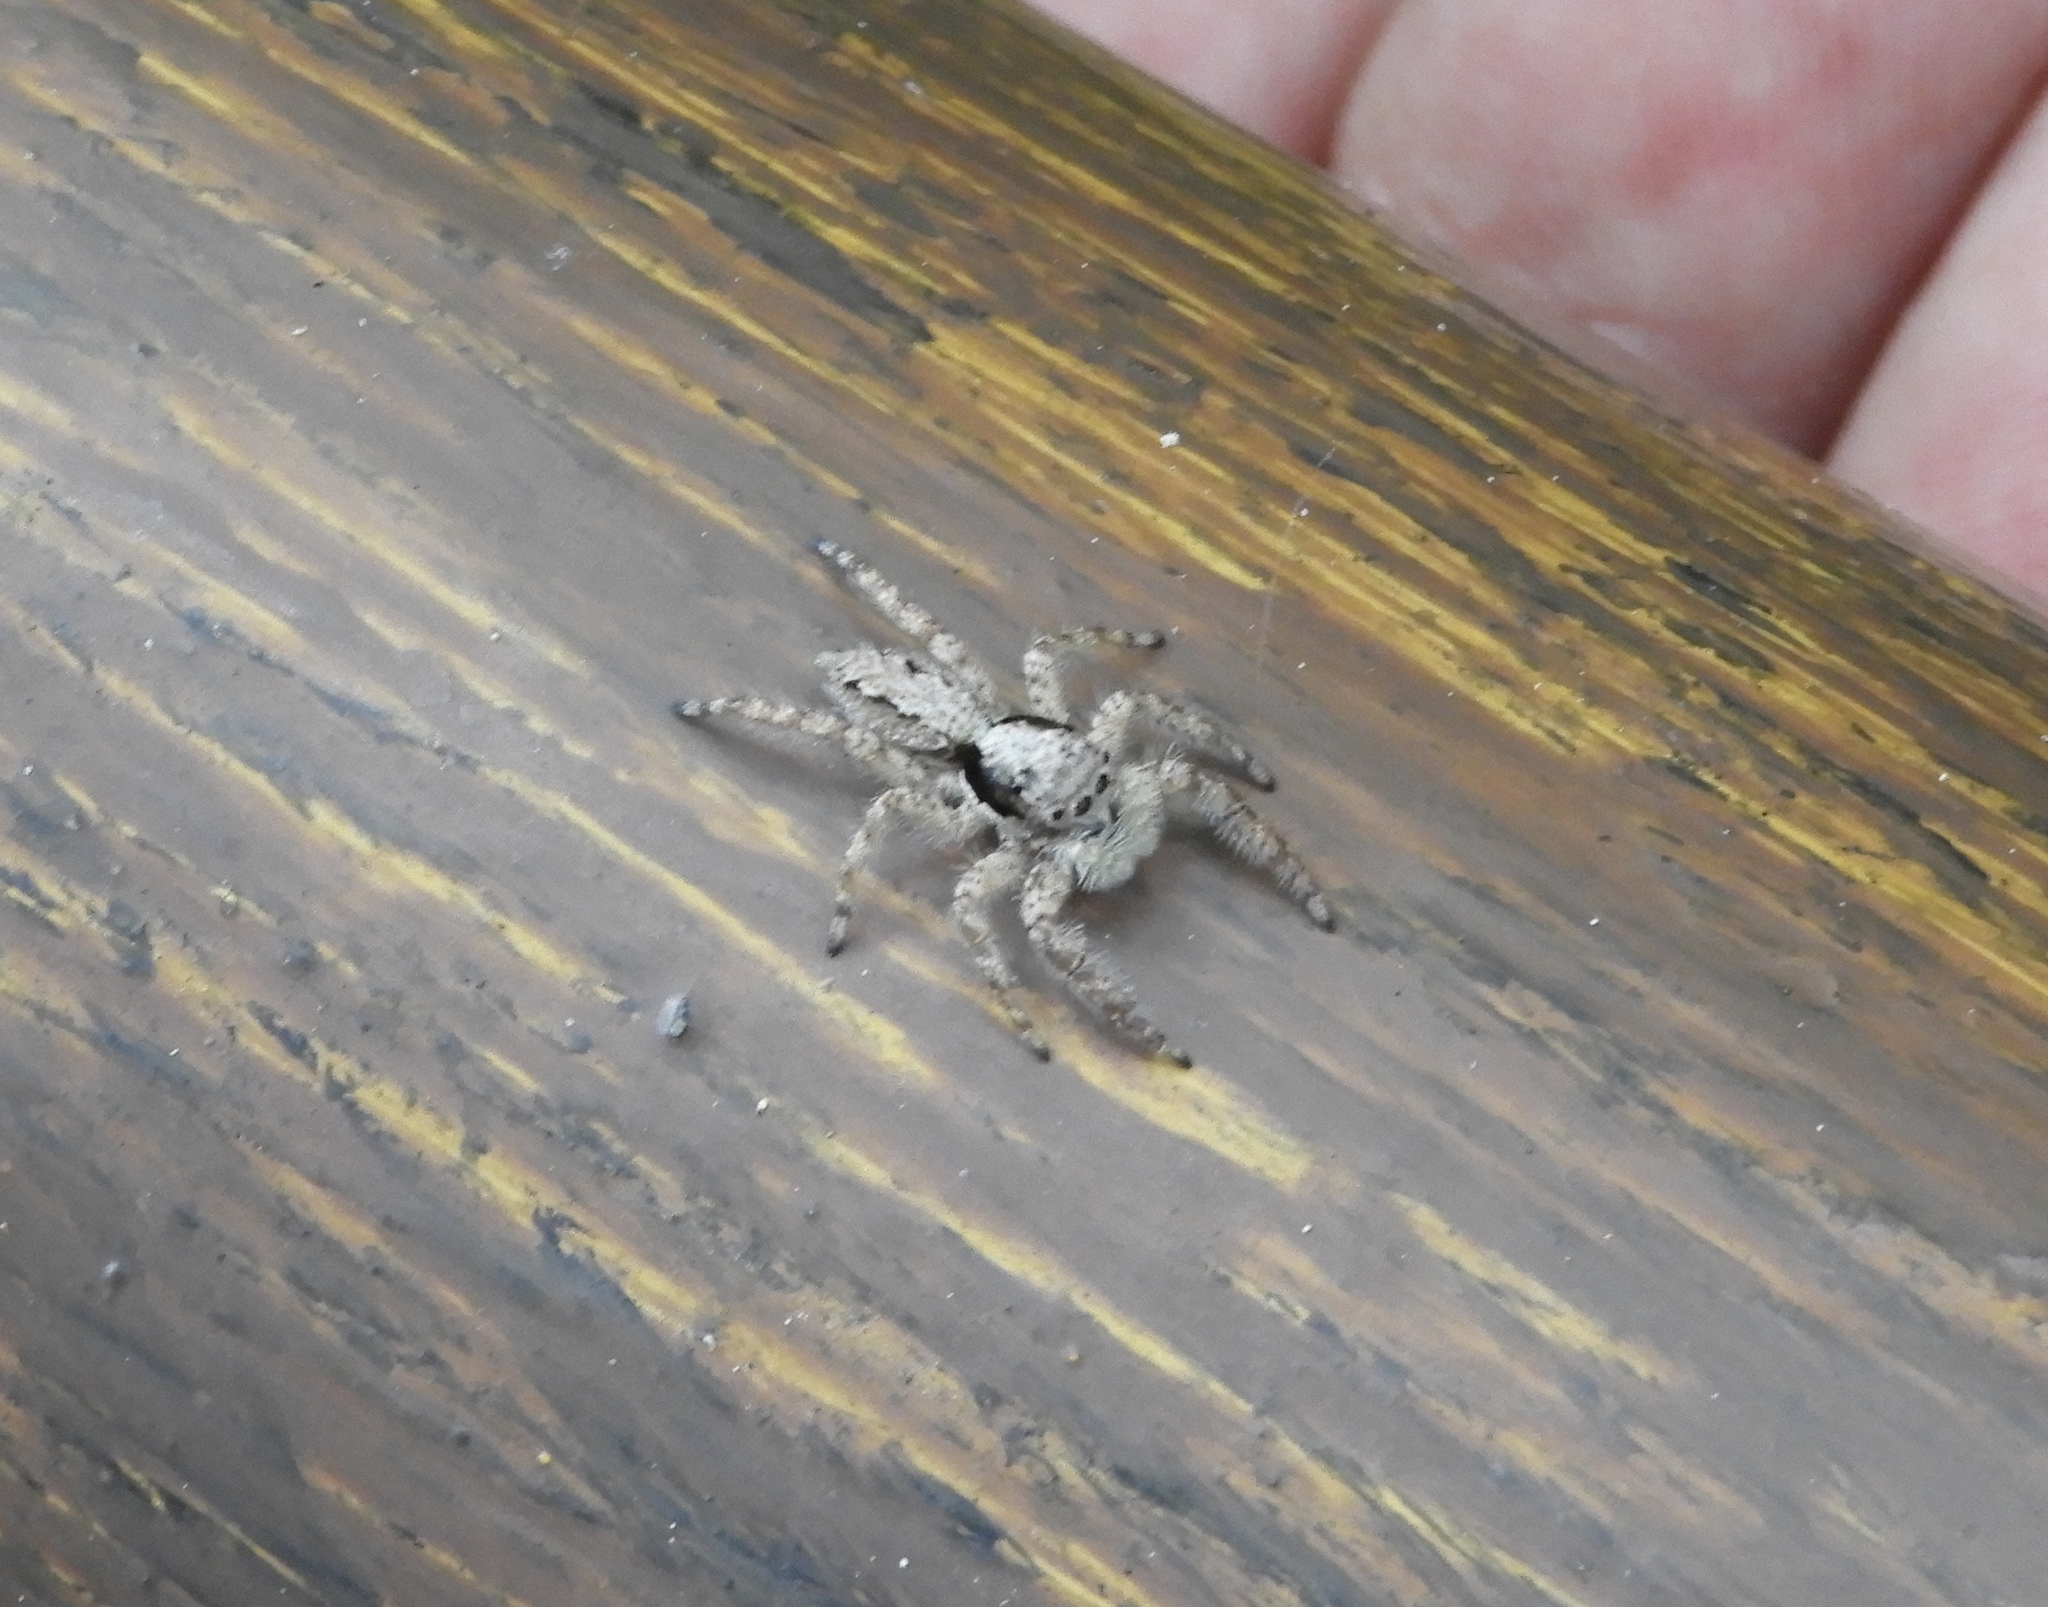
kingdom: Animalia
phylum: Arthropoda
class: Arachnida
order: Araneae
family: Salticidae
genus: Platycryptus
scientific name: Platycryptus
